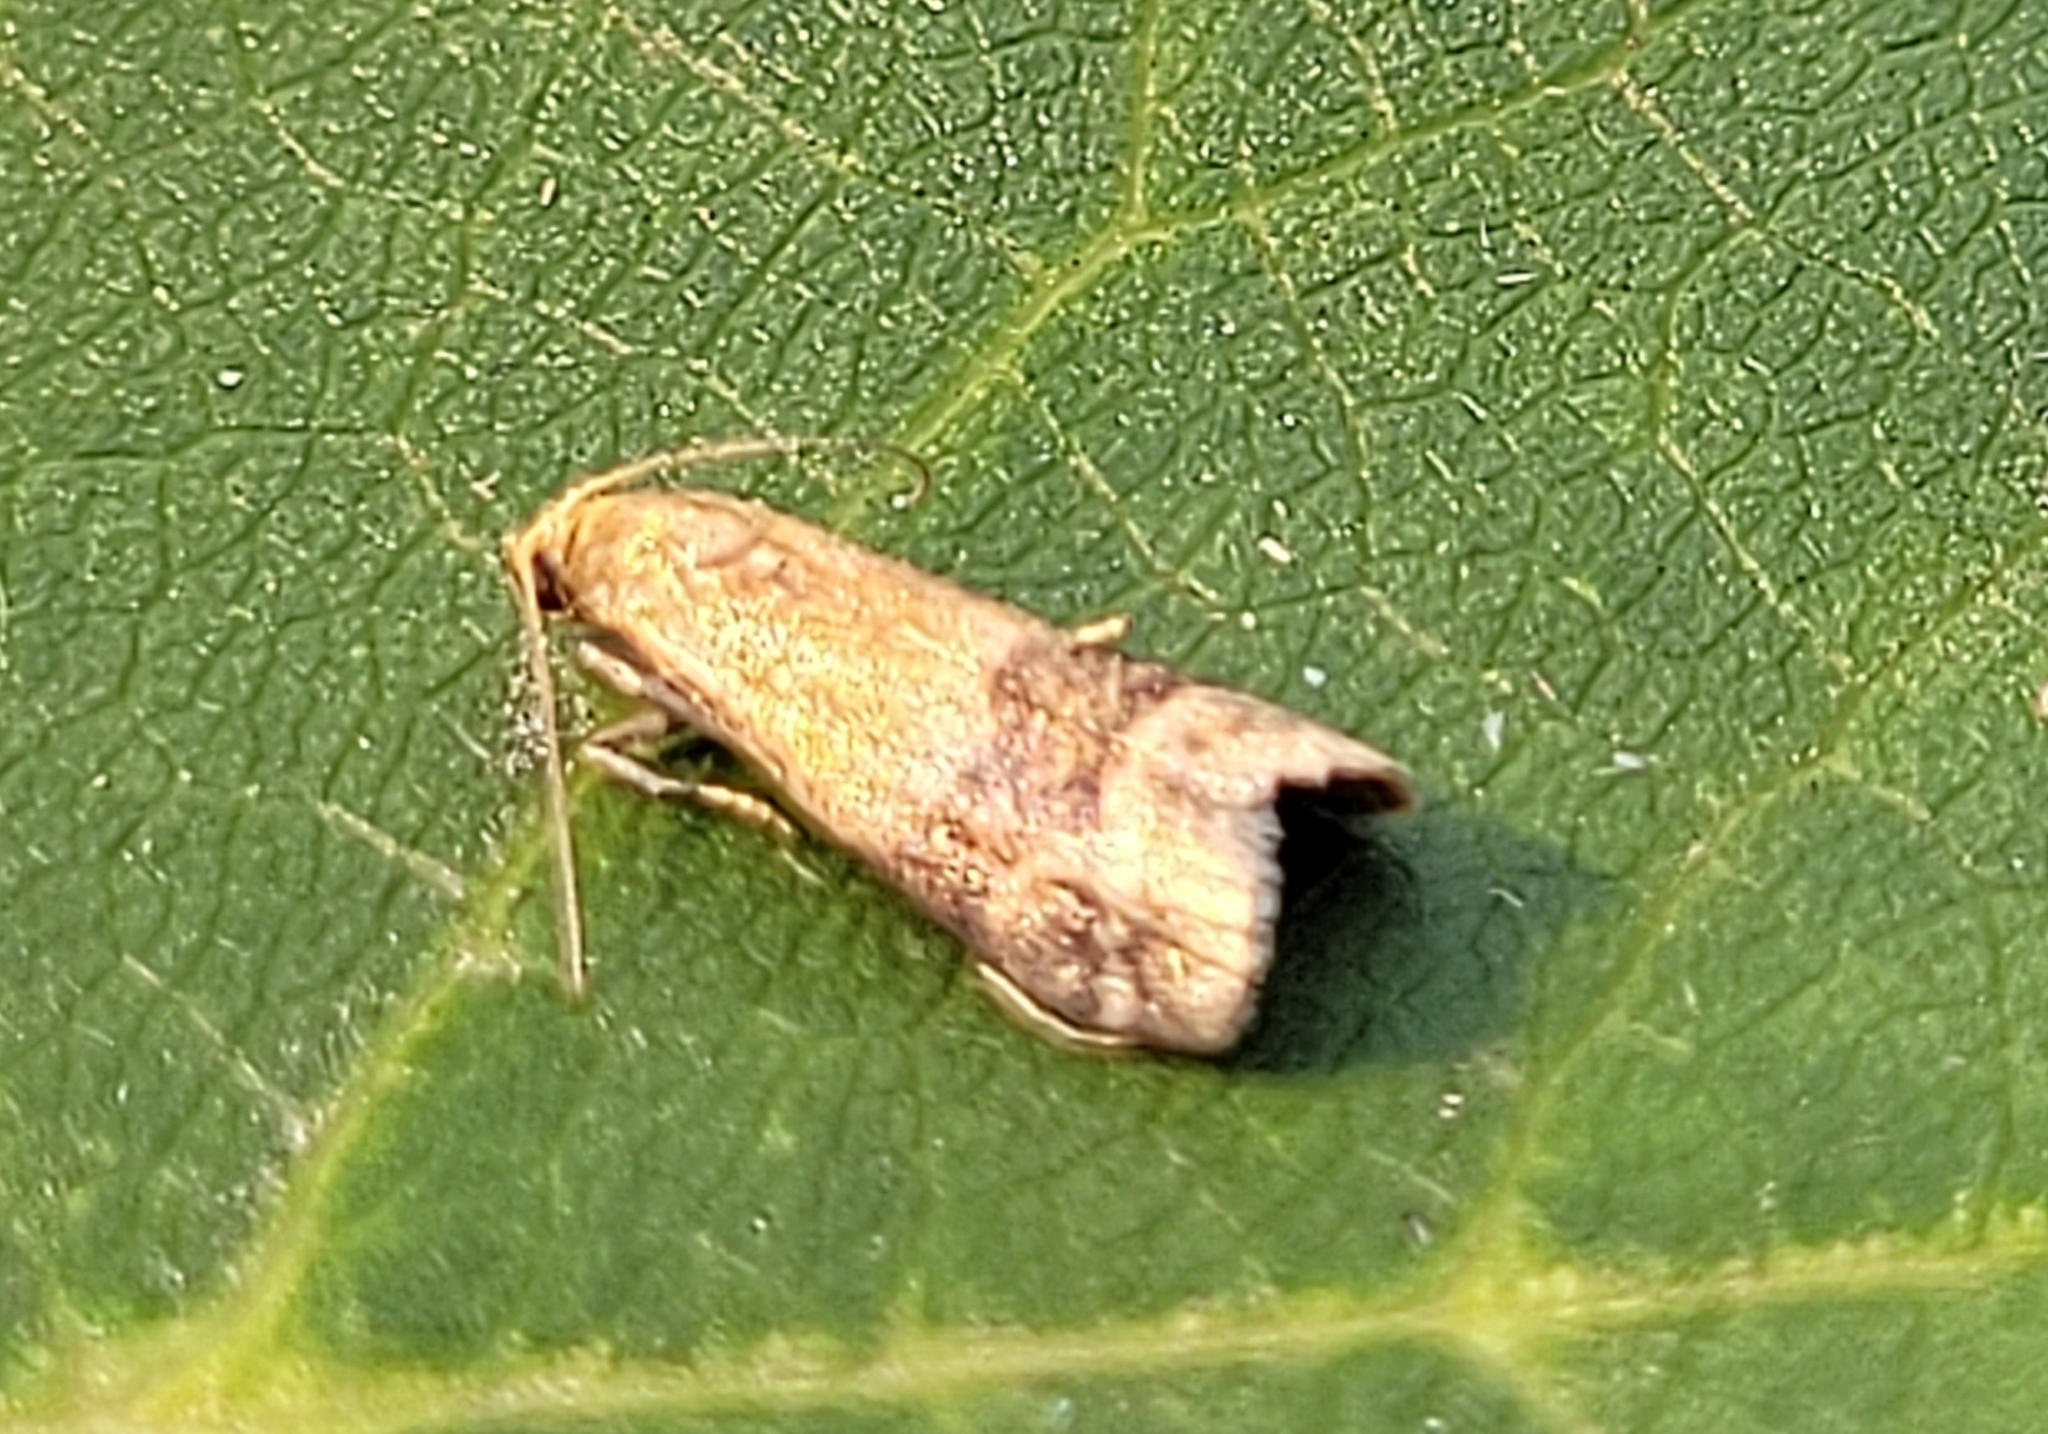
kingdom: Animalia
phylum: Arthropoda
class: Insecta
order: Lepidoptera
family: Pyralidae
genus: Eulogia
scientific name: Eulogia ochrifrontella
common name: Broad-banded eulogia moth
